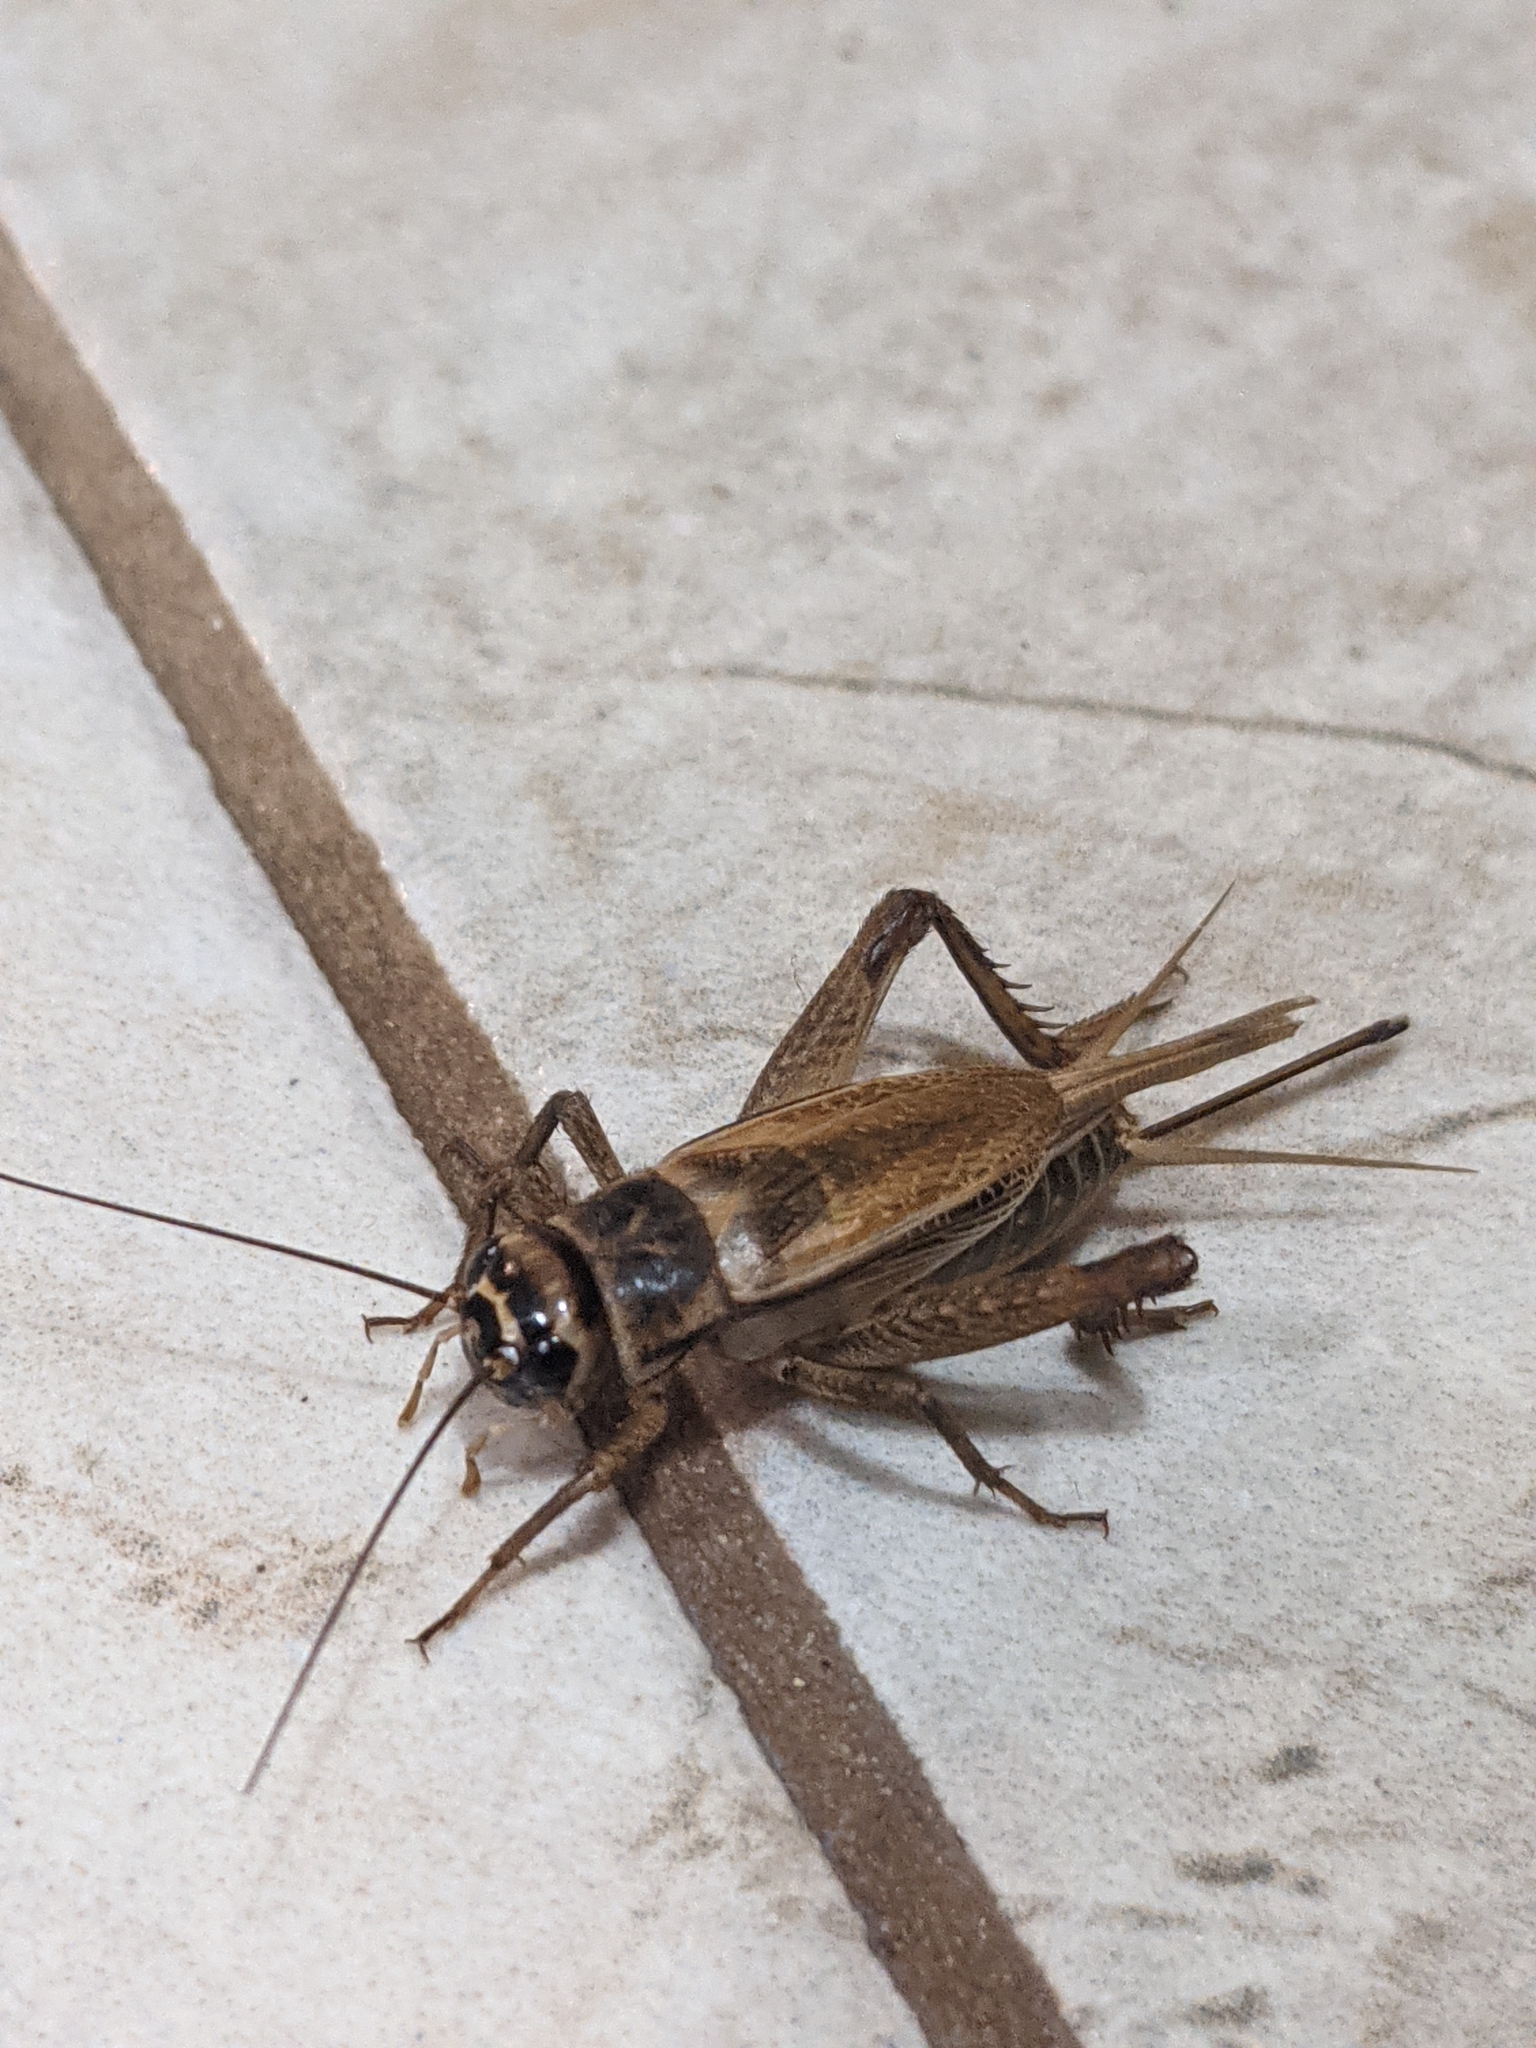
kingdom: Animalia
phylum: Arthropoda
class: Insecta
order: Orthoptera
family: Gryllidae
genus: Acheta
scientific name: Acheta domesticus
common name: House cricket
